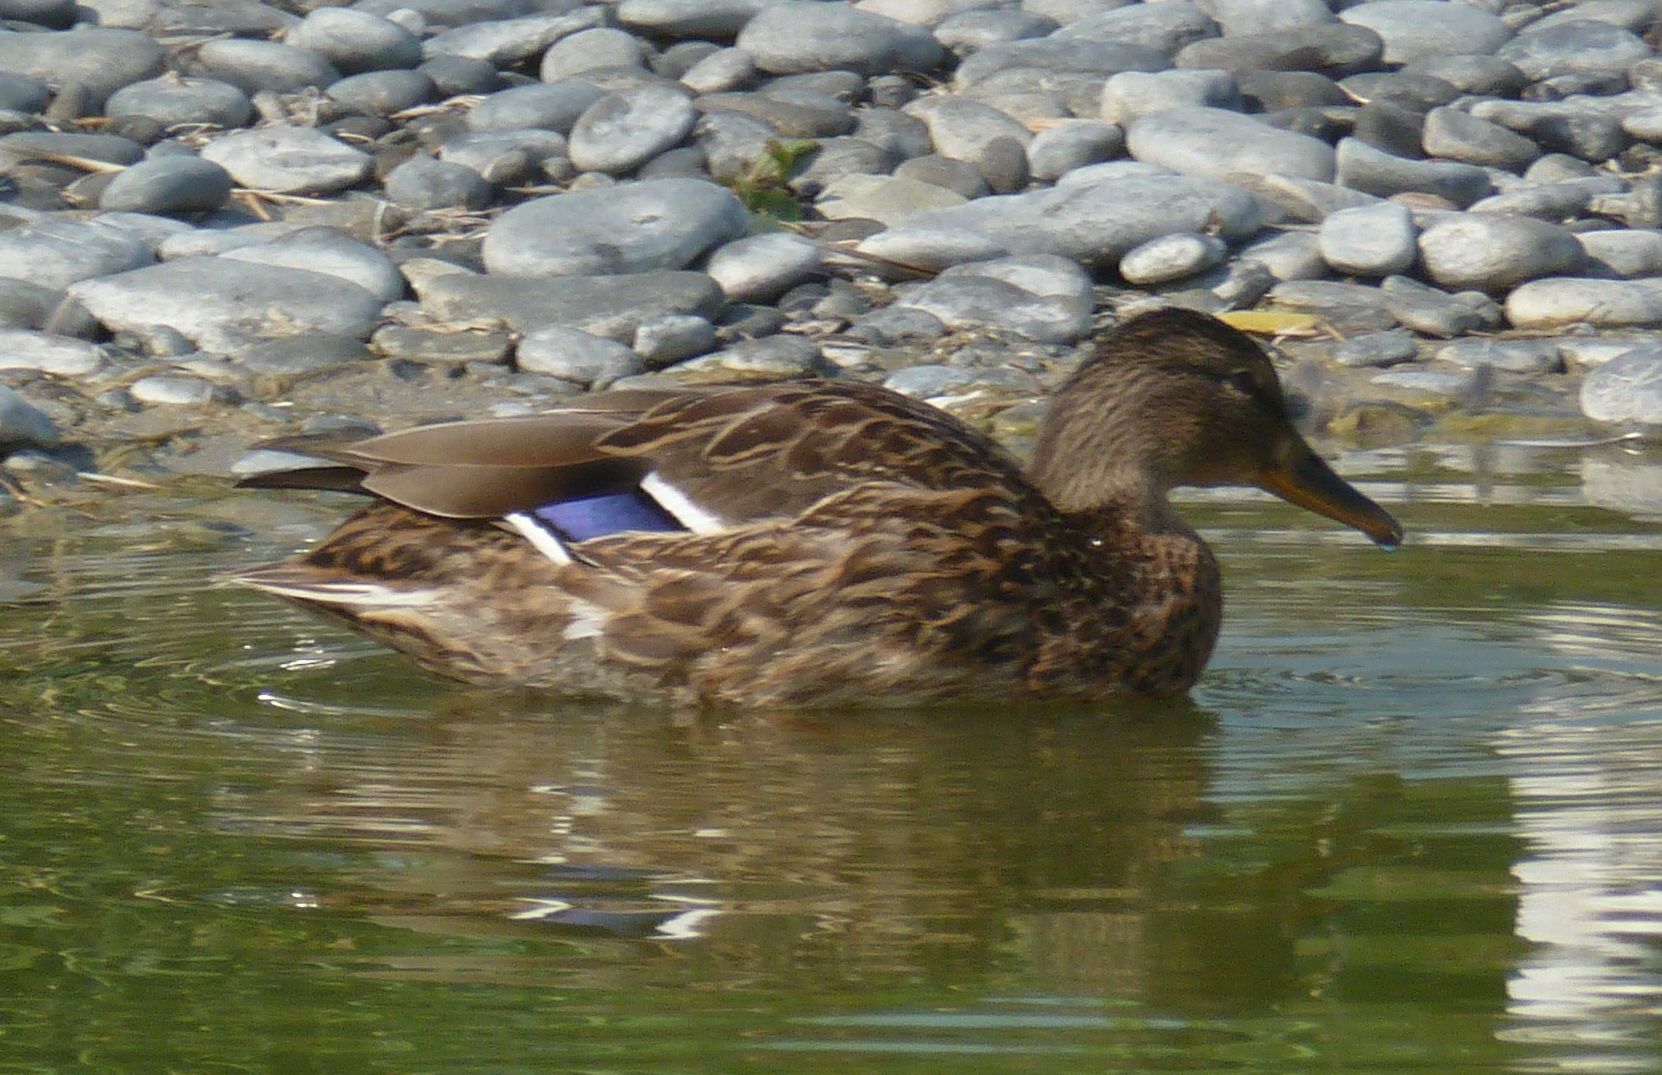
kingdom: Animalia
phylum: Chordata
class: Aves
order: Anseriformes
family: Anatidae
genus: Anas
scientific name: Anas platyrhynchos
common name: Mallard
